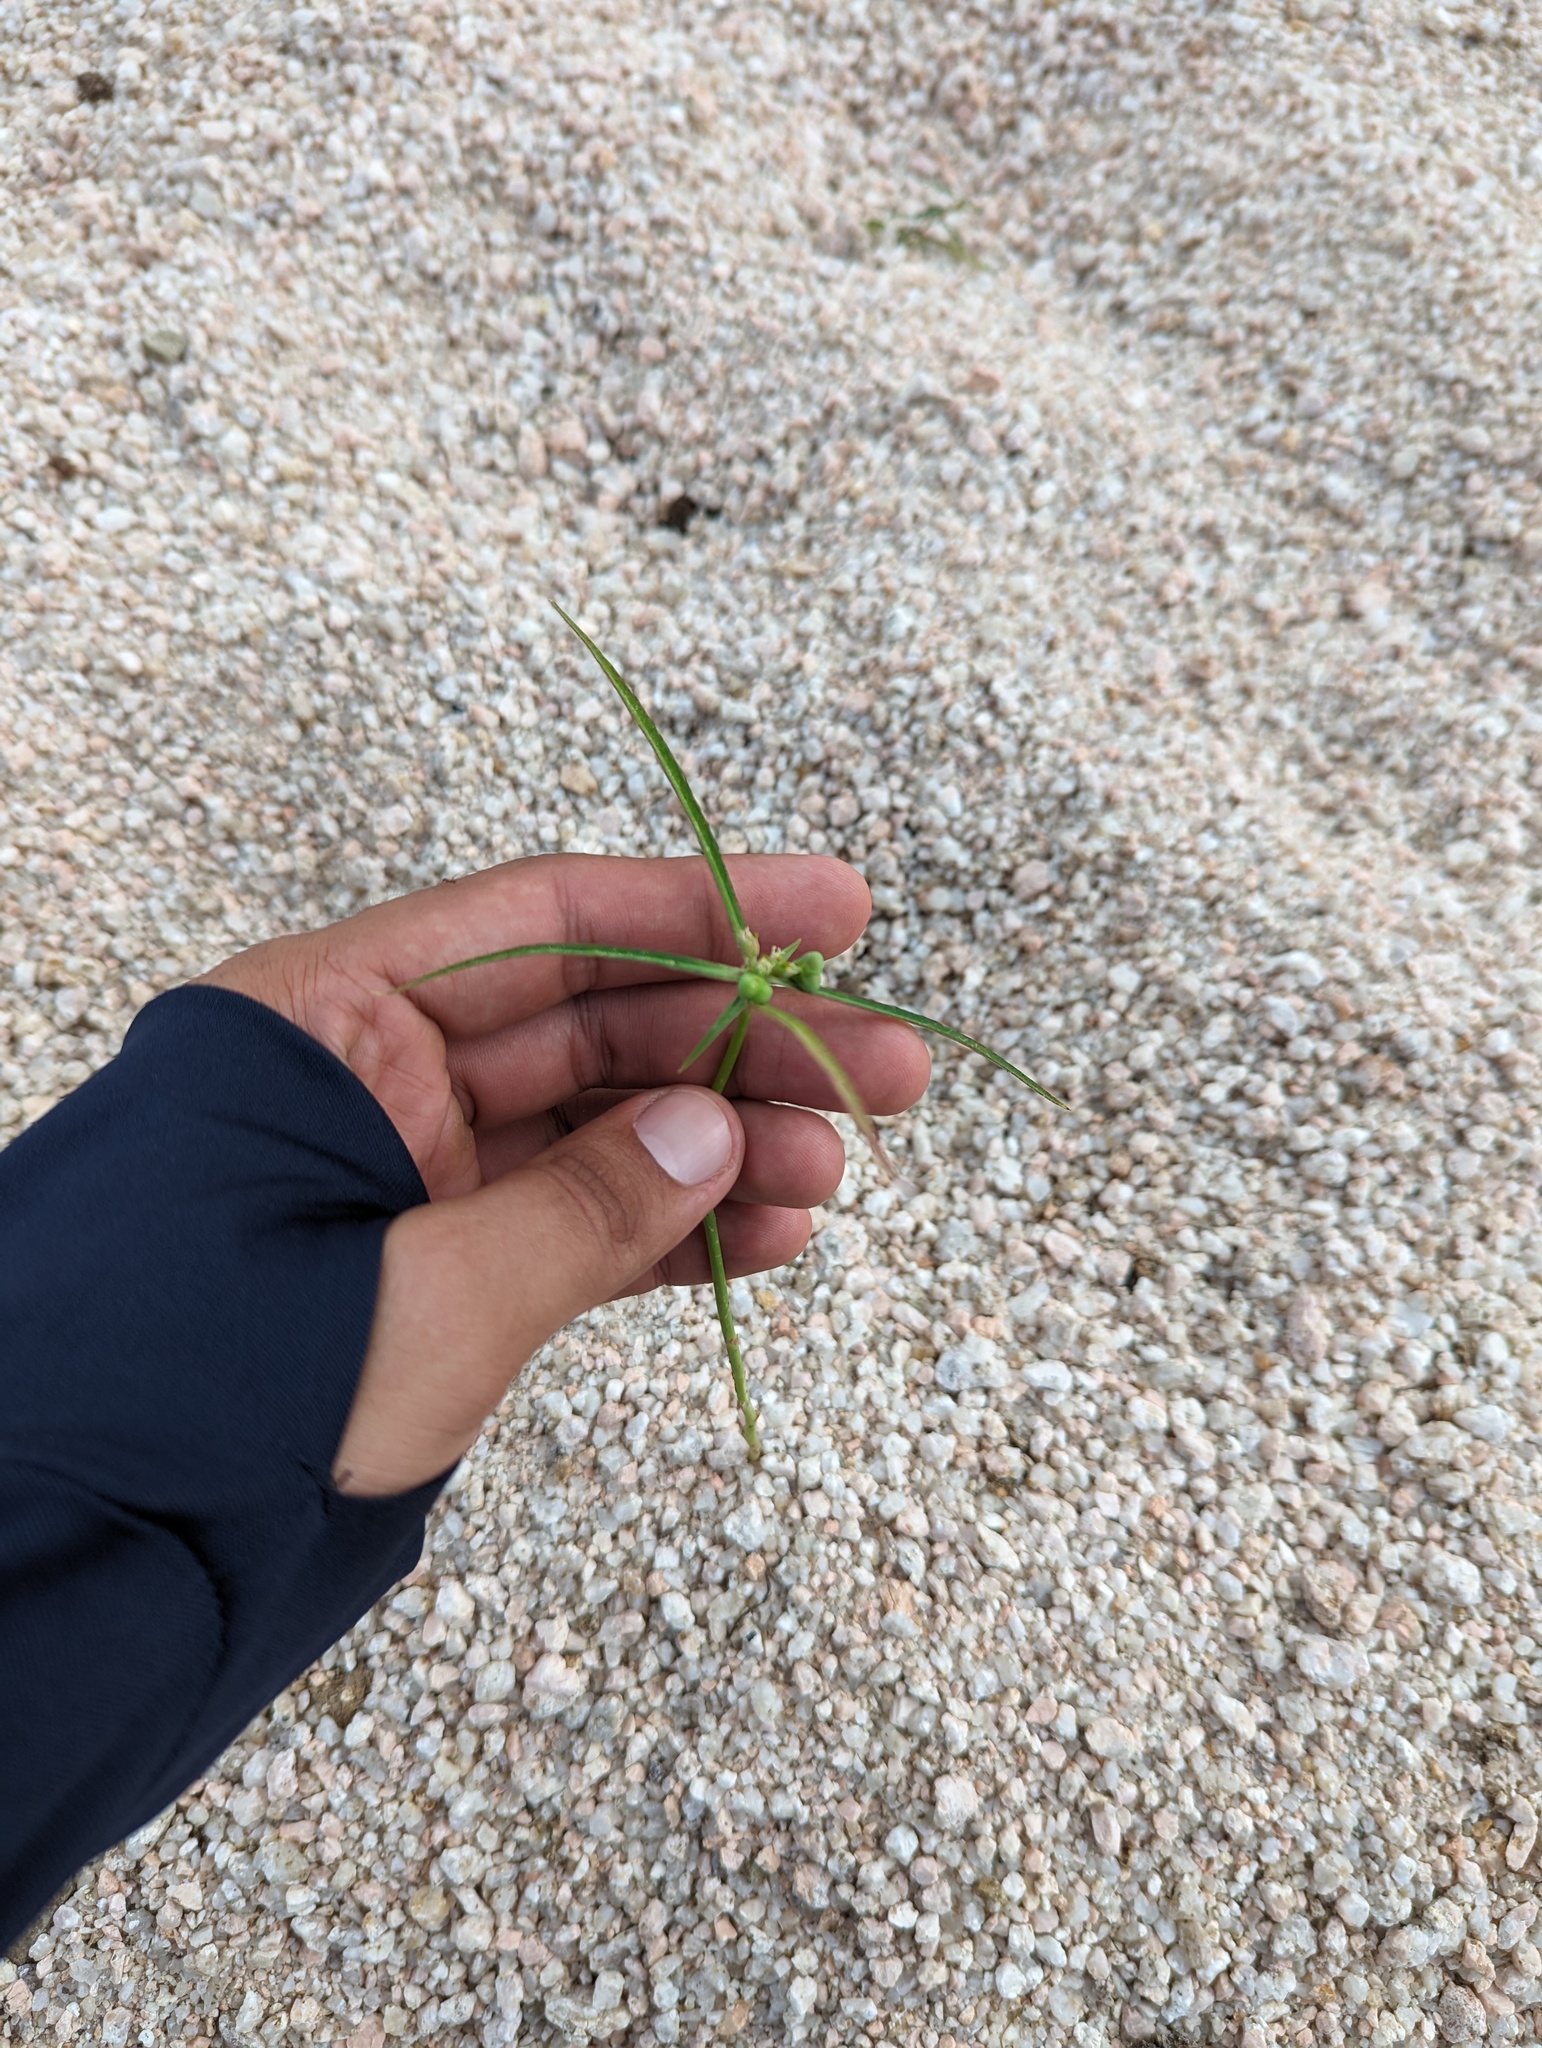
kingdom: Plantae
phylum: Tracheophyta
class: Magnoliopsida
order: Malpighiales
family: Euphorbiaceae
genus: Euphorbia
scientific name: Euphorbia heterophylla
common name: Mexican fireplant
